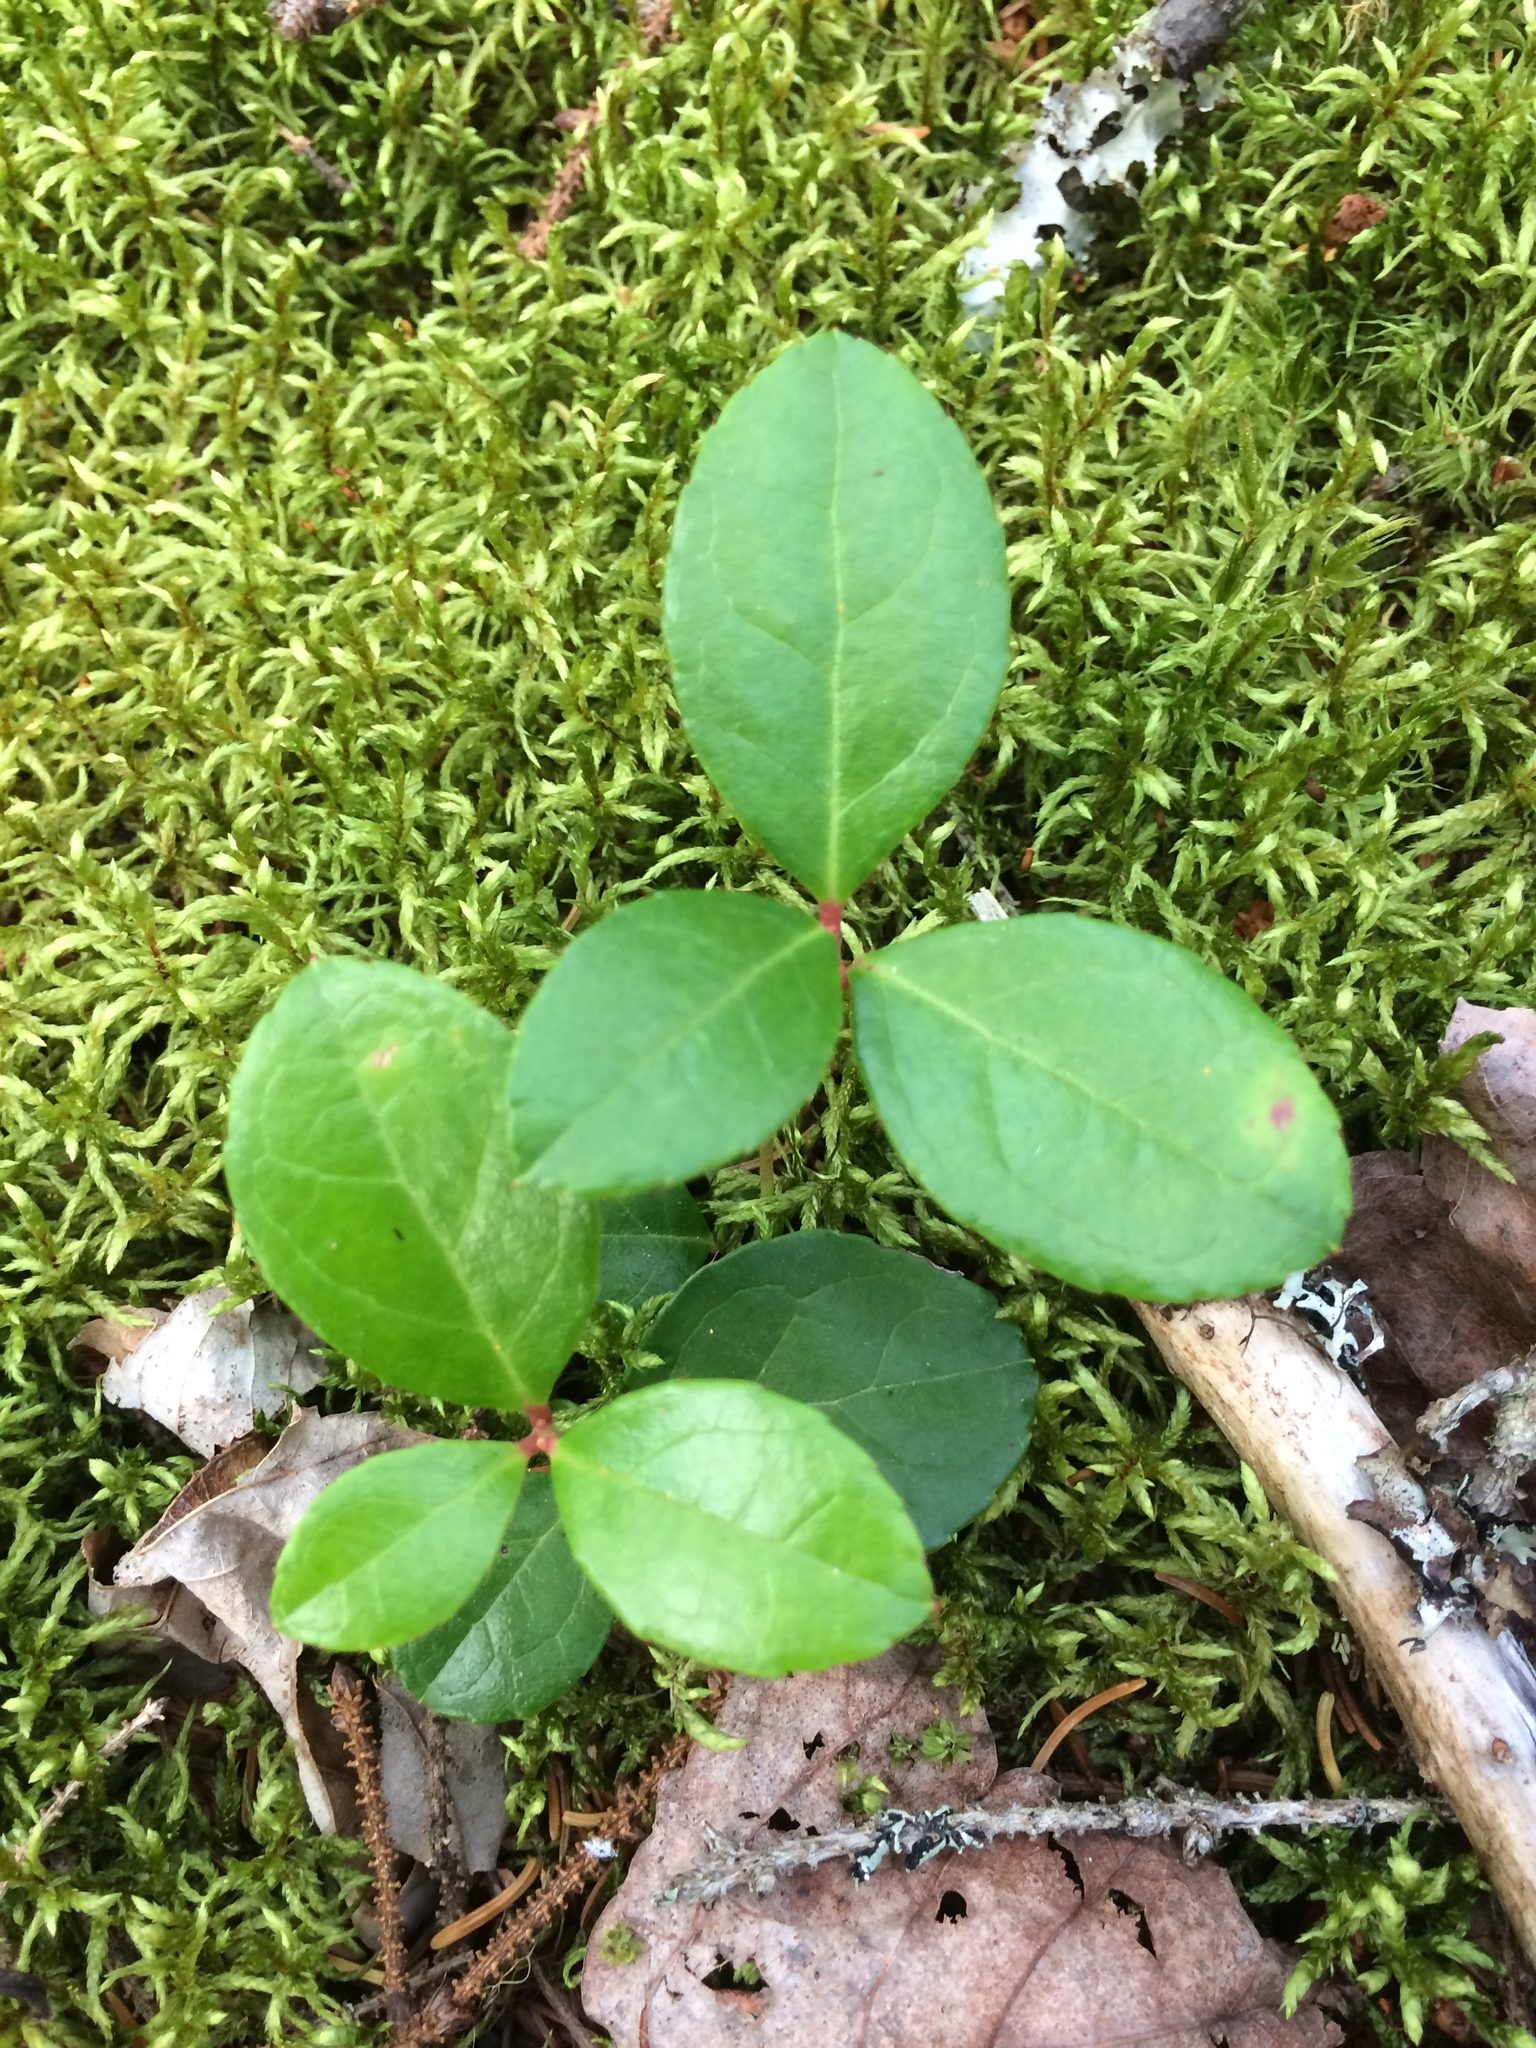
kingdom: Plantae
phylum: Tracheophyta
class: Magnoliopsida
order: Ericales
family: Ericaceae
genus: Gaultheria
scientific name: Gaultheria procumbens
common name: Checkerberry
